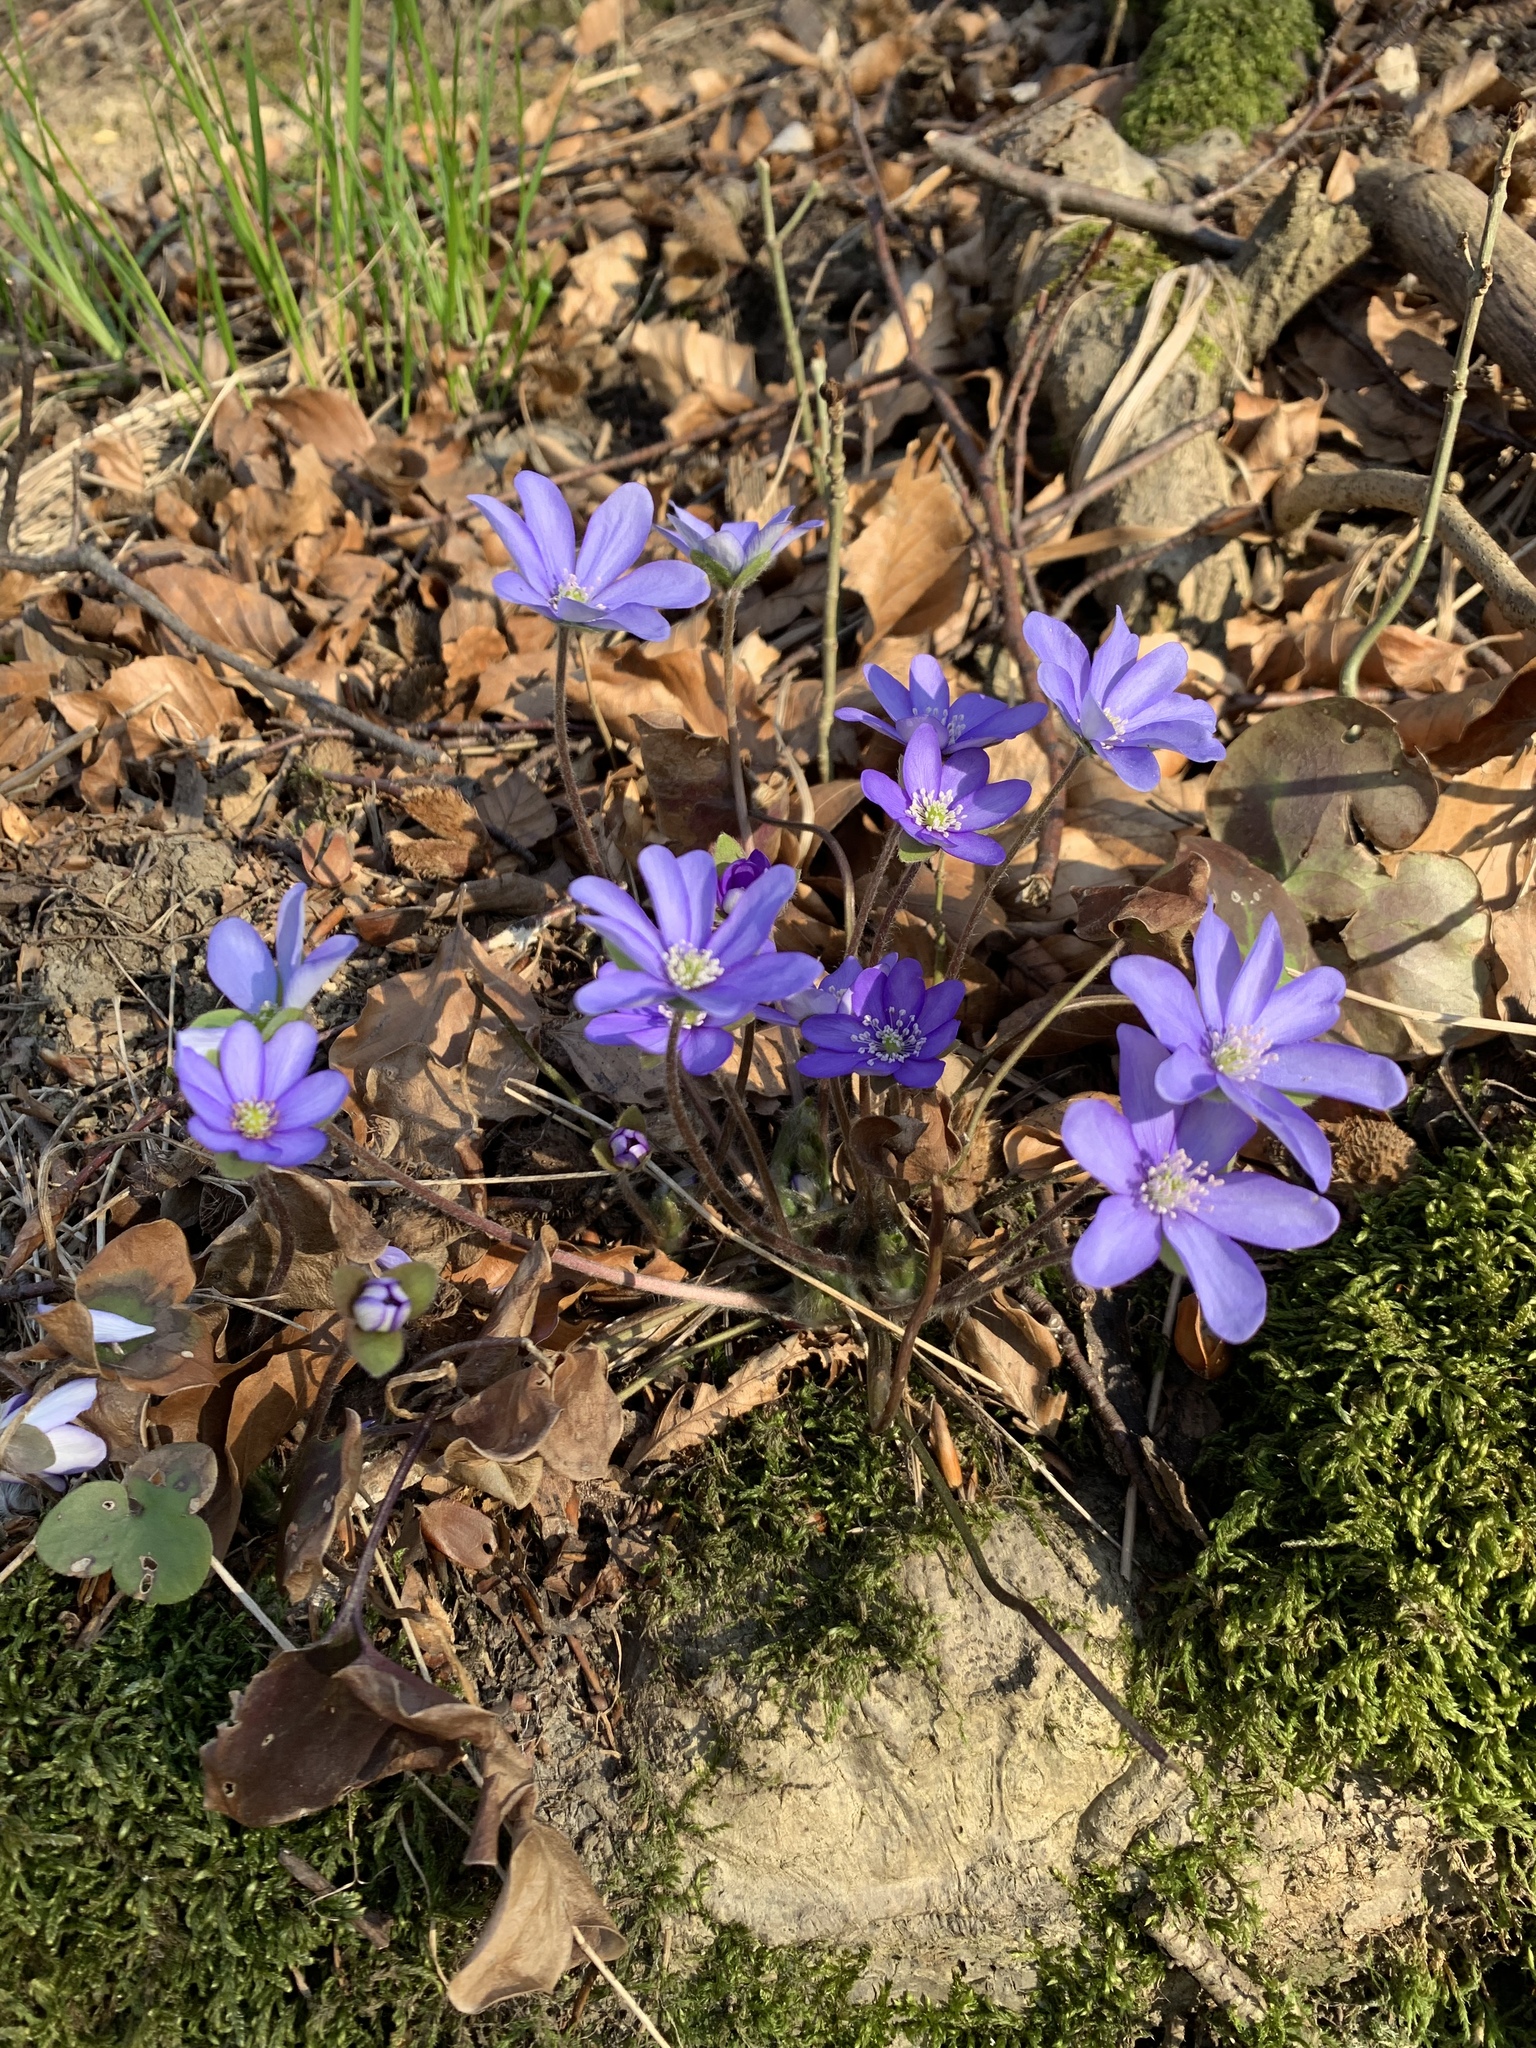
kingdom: Plantae
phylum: Tracheophyta
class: Magnoliopsida
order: Ranunculales
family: Ranunculaceae
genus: Hepatica
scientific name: Hepatica nobilis
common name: Liverleaf
